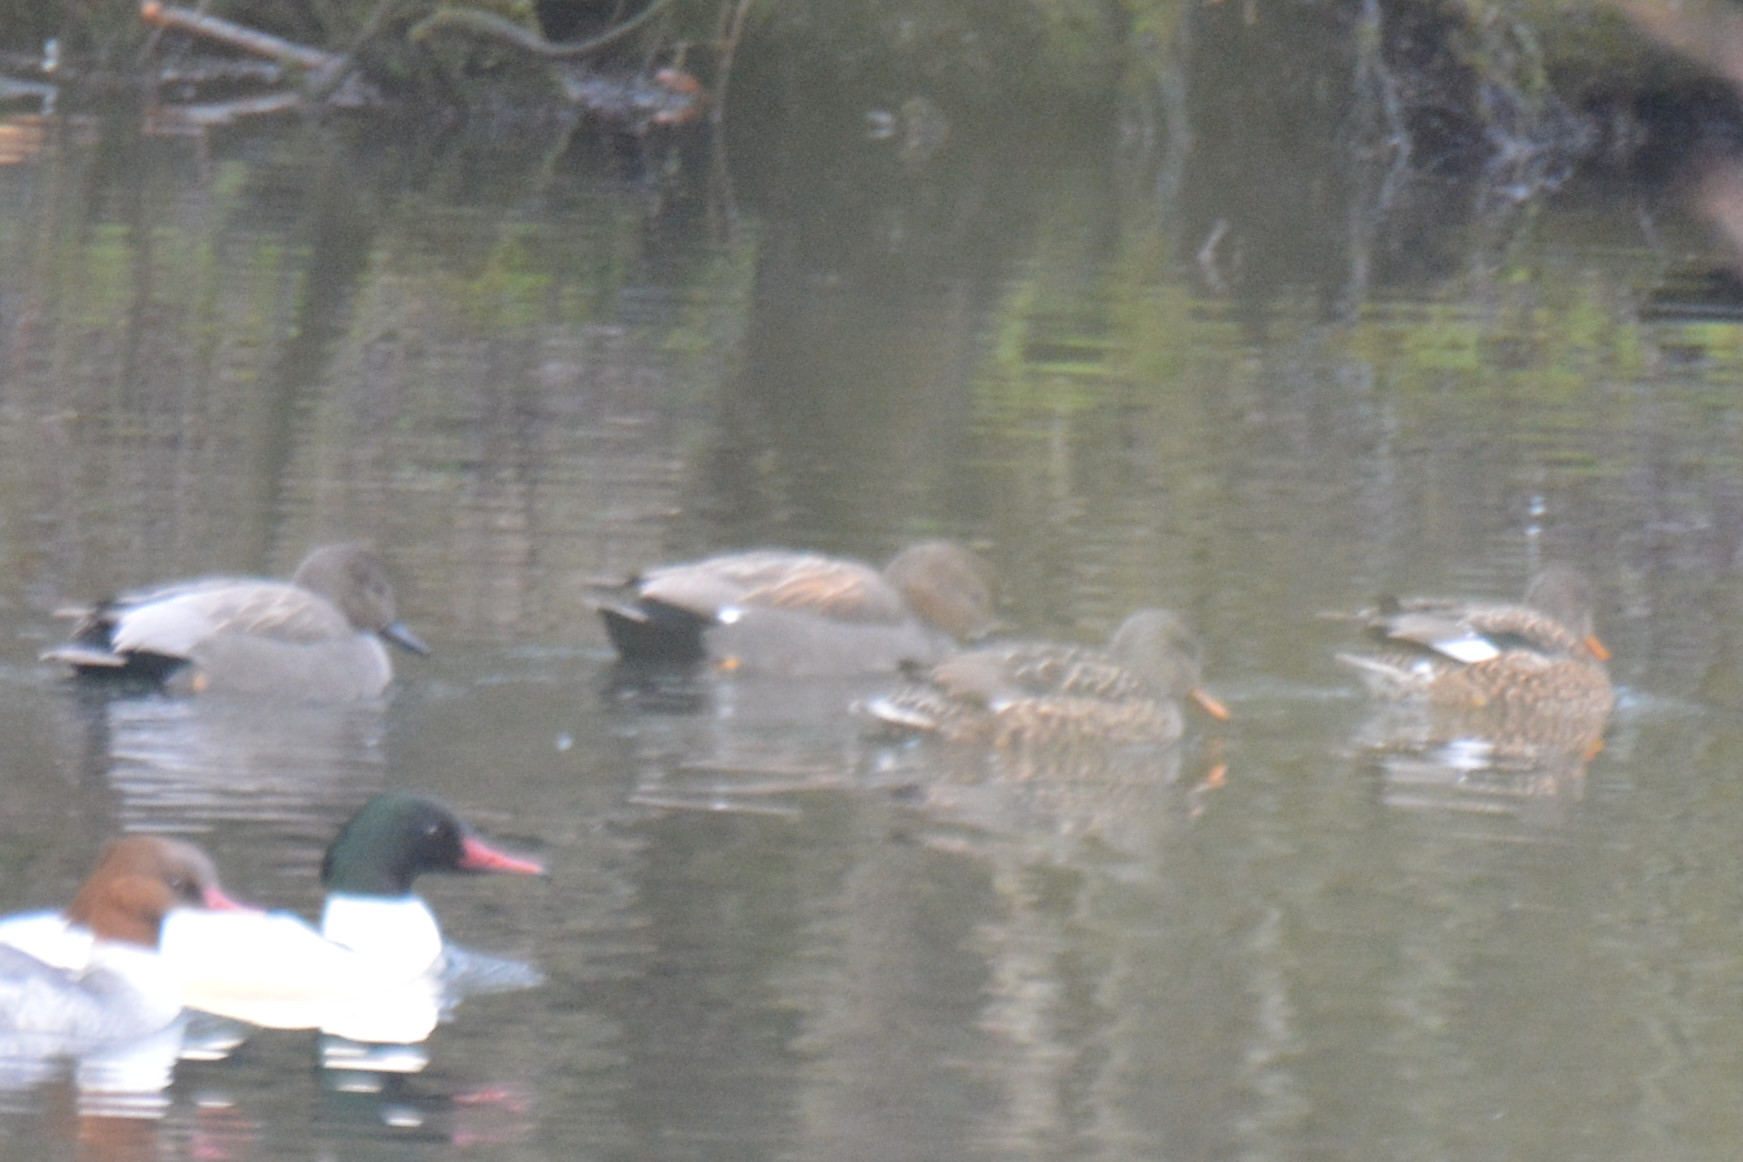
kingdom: Animalia
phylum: Chordata
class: Aves
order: Anseriformes
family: Anatidae
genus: Mareca
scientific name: Mareca strepera
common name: Gadwall
